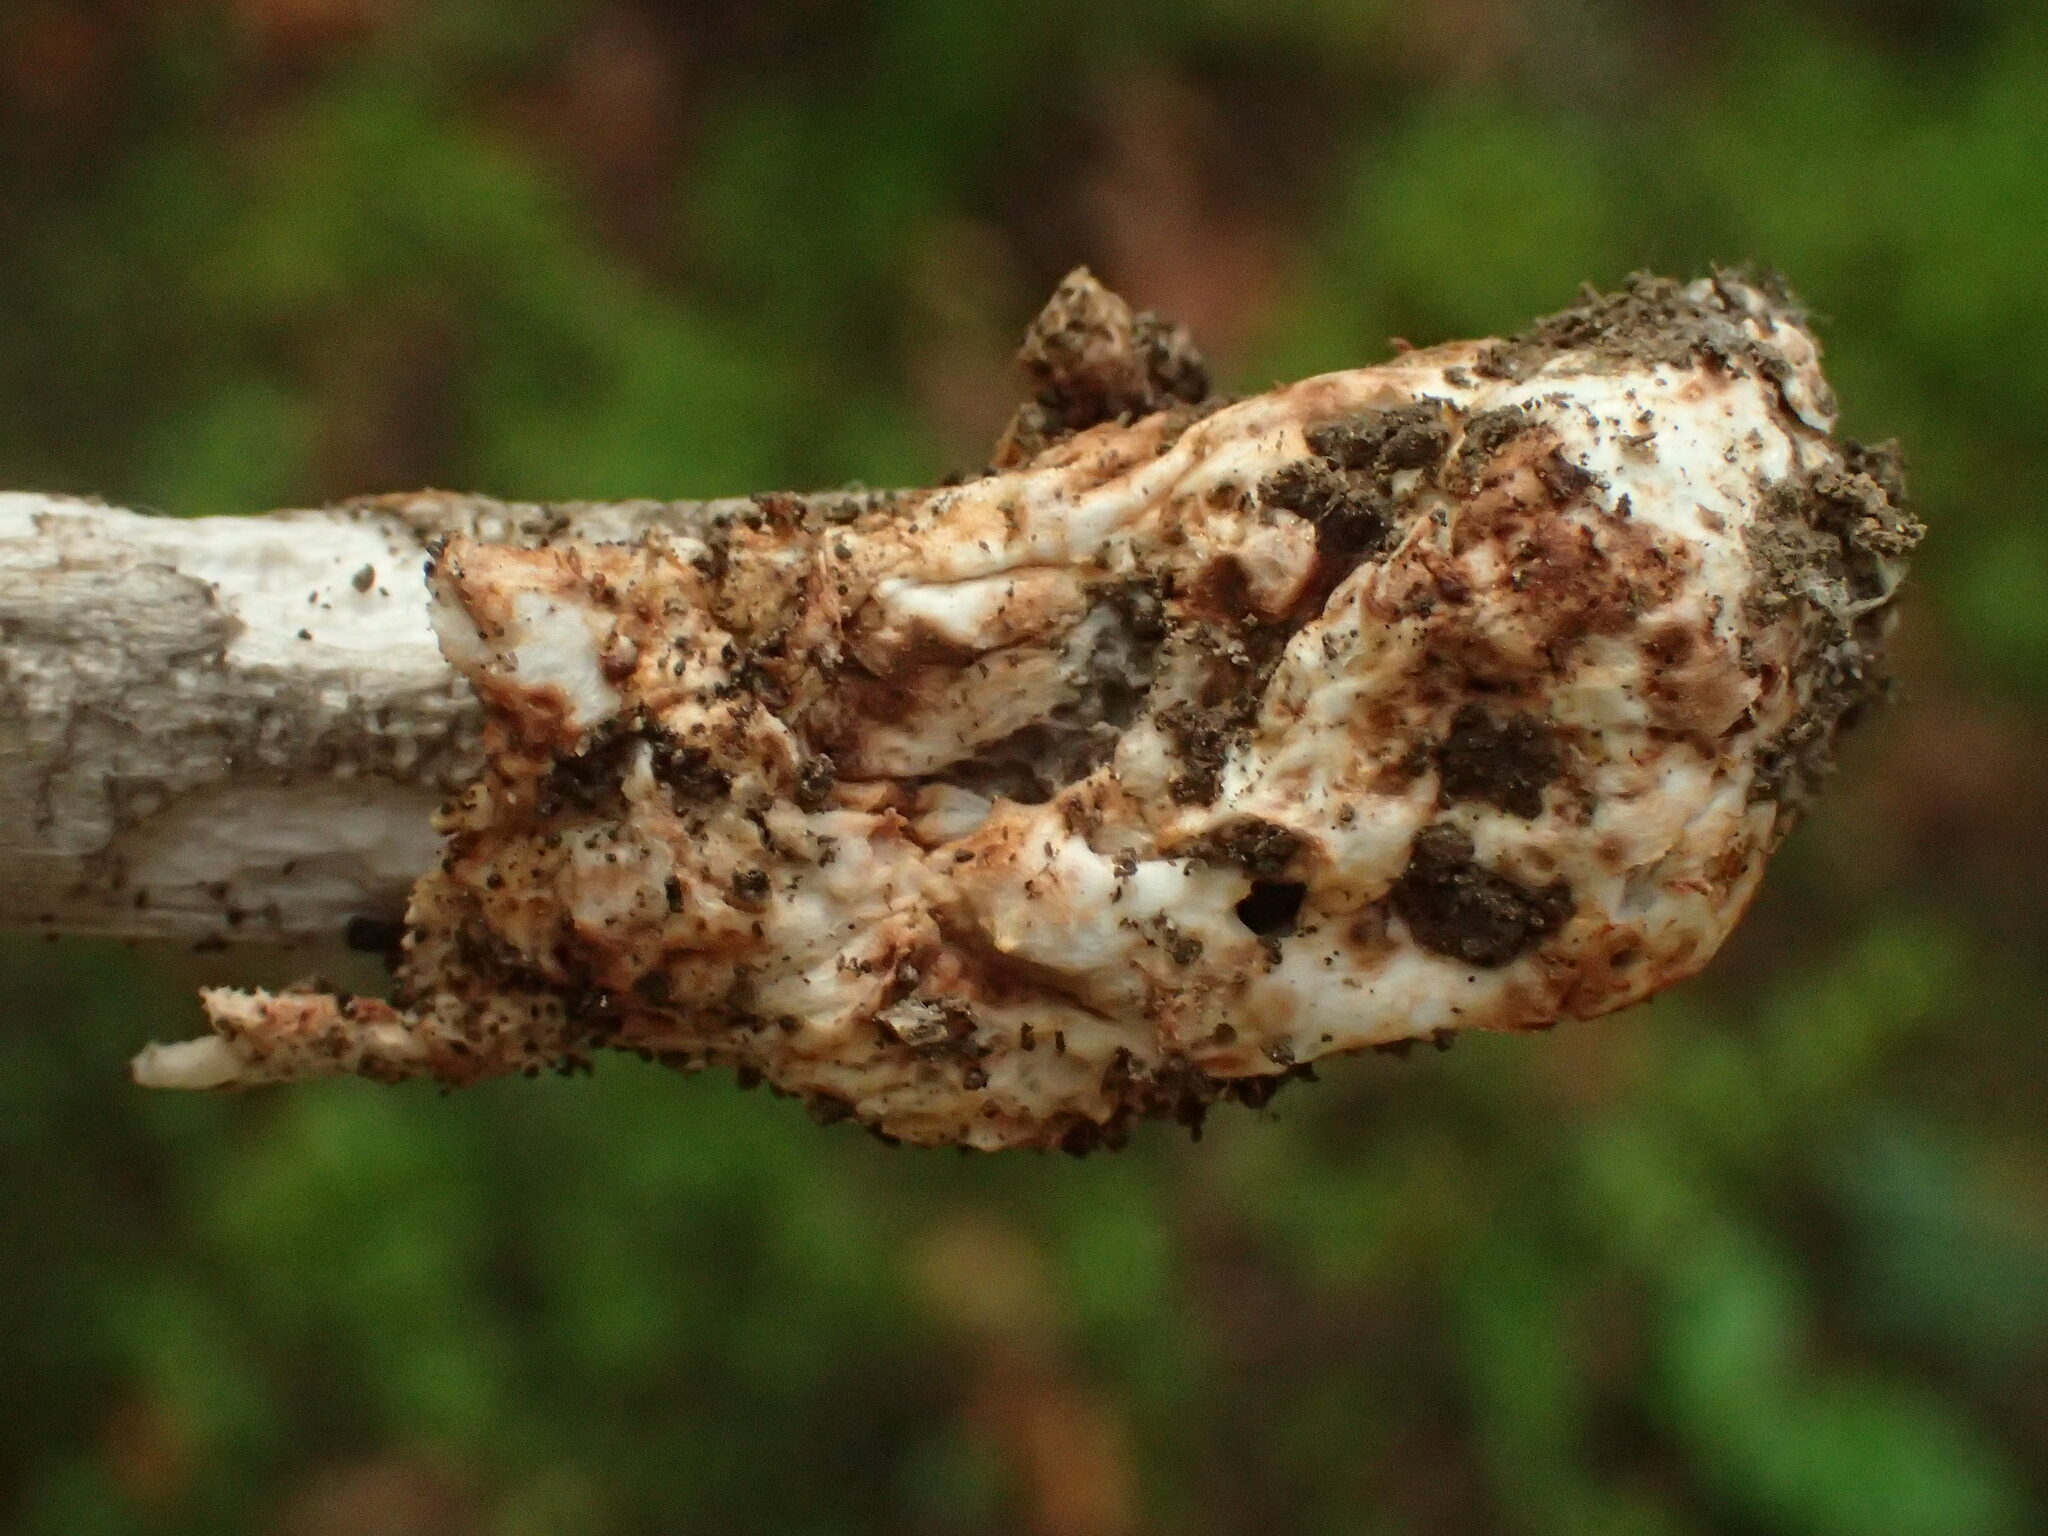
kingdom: Fungi
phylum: Basidiomycota
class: Agaricomycetes
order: Agaricales
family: Amanitaceae
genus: Amanita
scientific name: Amanita battarrae
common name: Banded amanita
